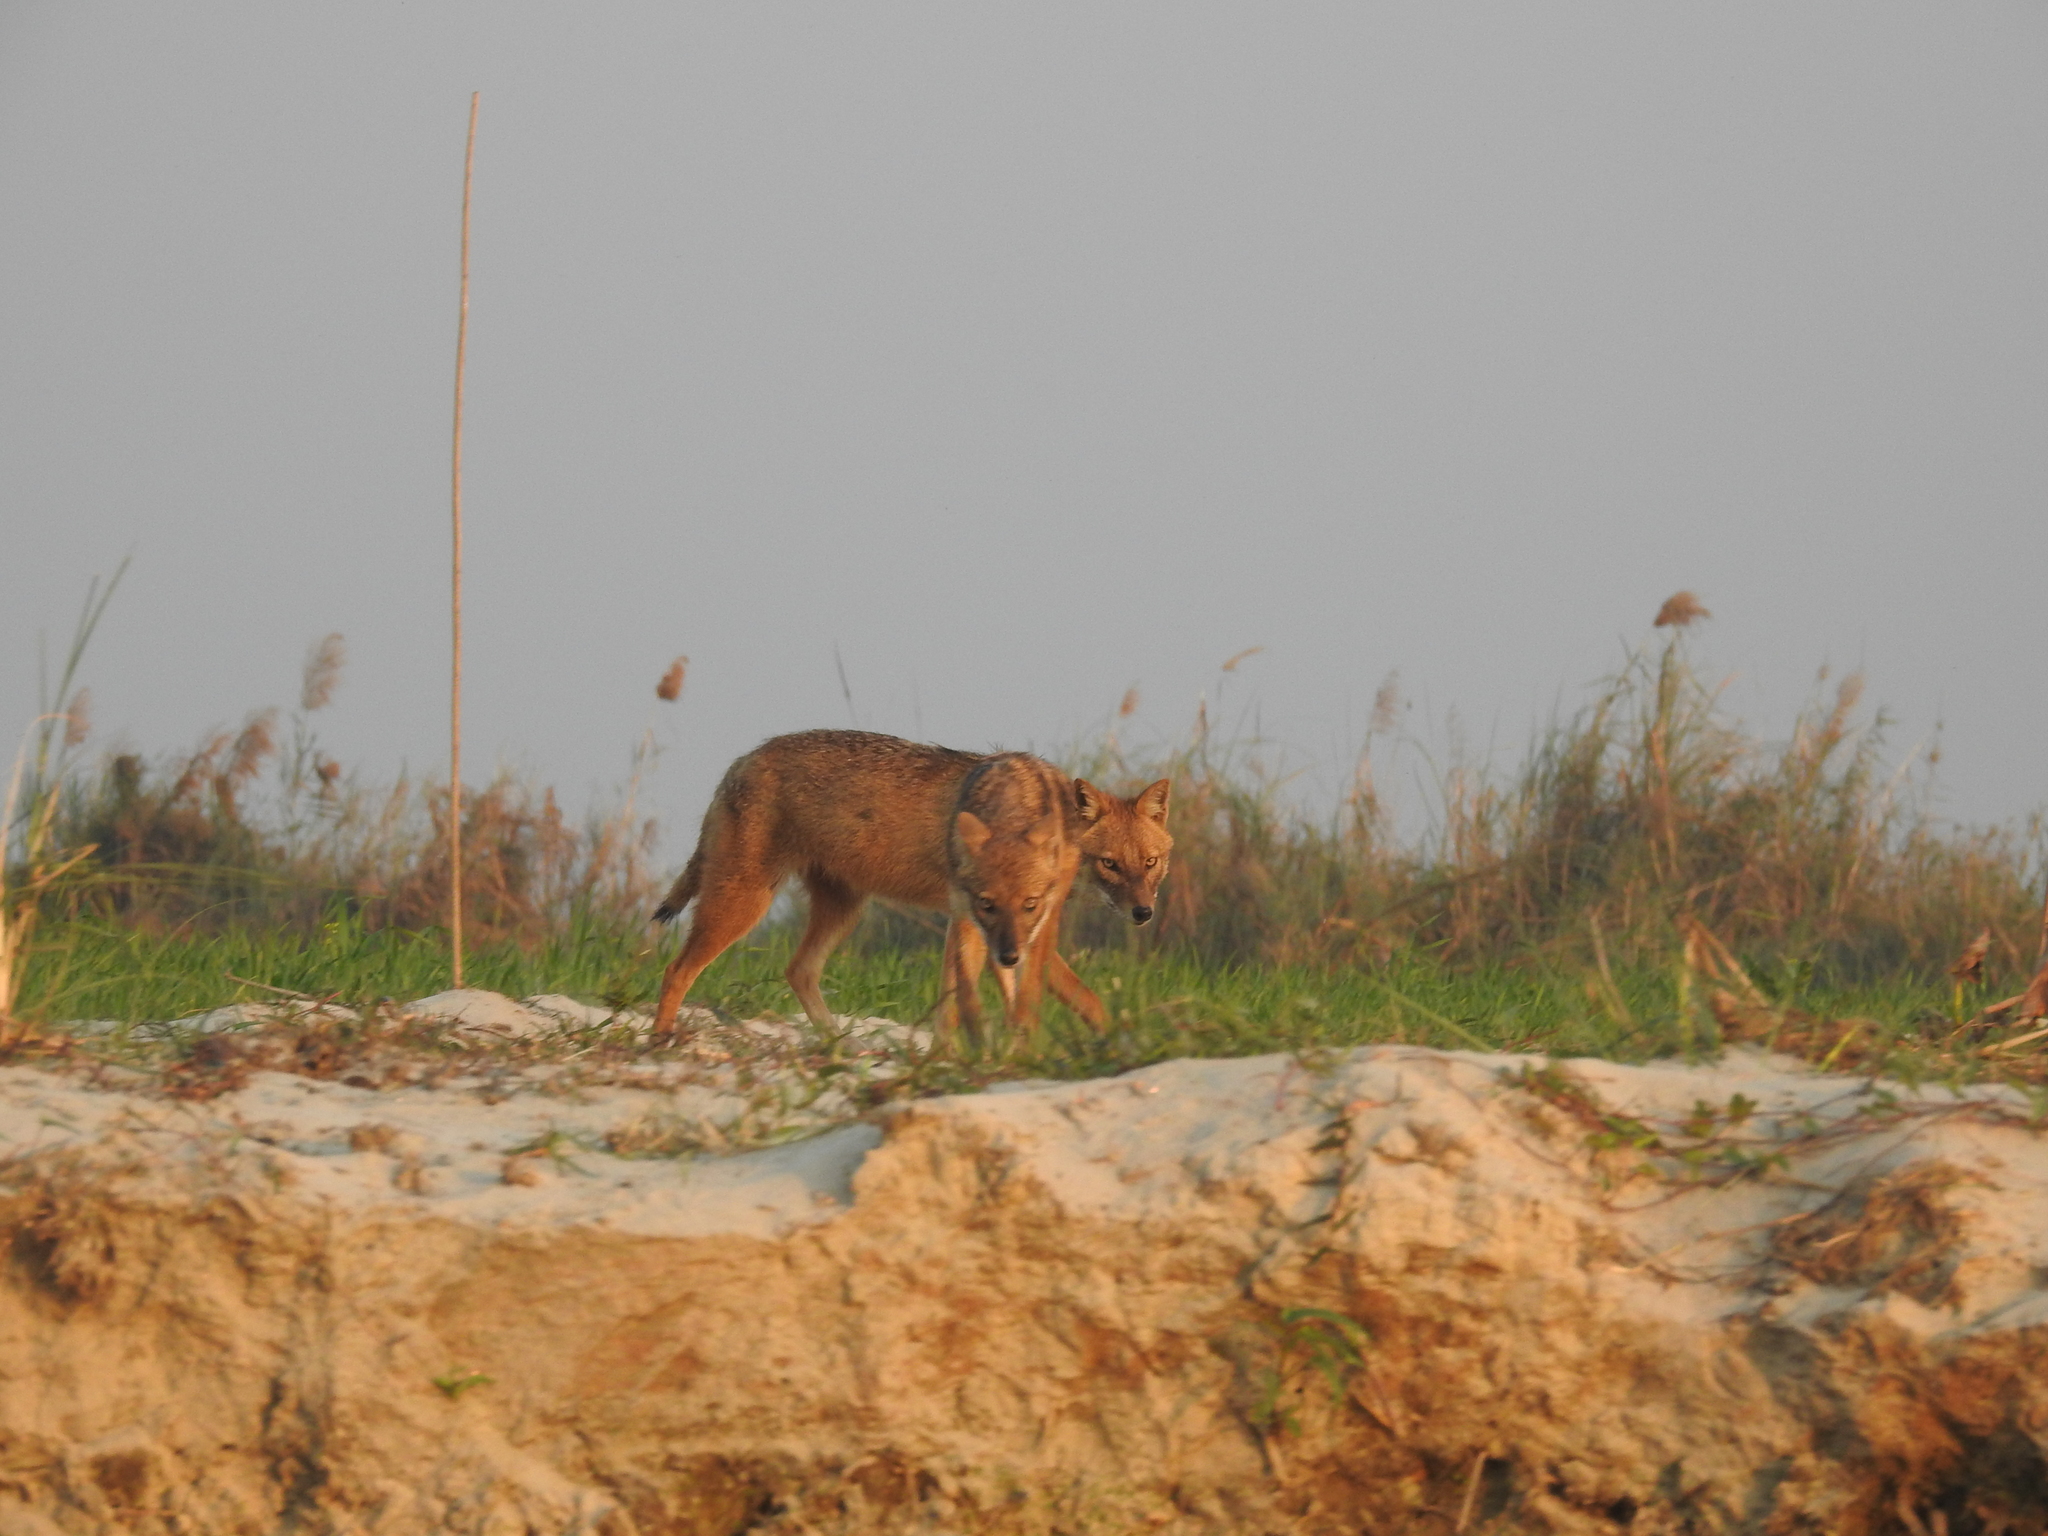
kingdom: Animalia
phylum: Chordata
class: Mammalia
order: Carnivora
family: Canidae
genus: Canis
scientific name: Canis aureus
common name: Golden jackal
